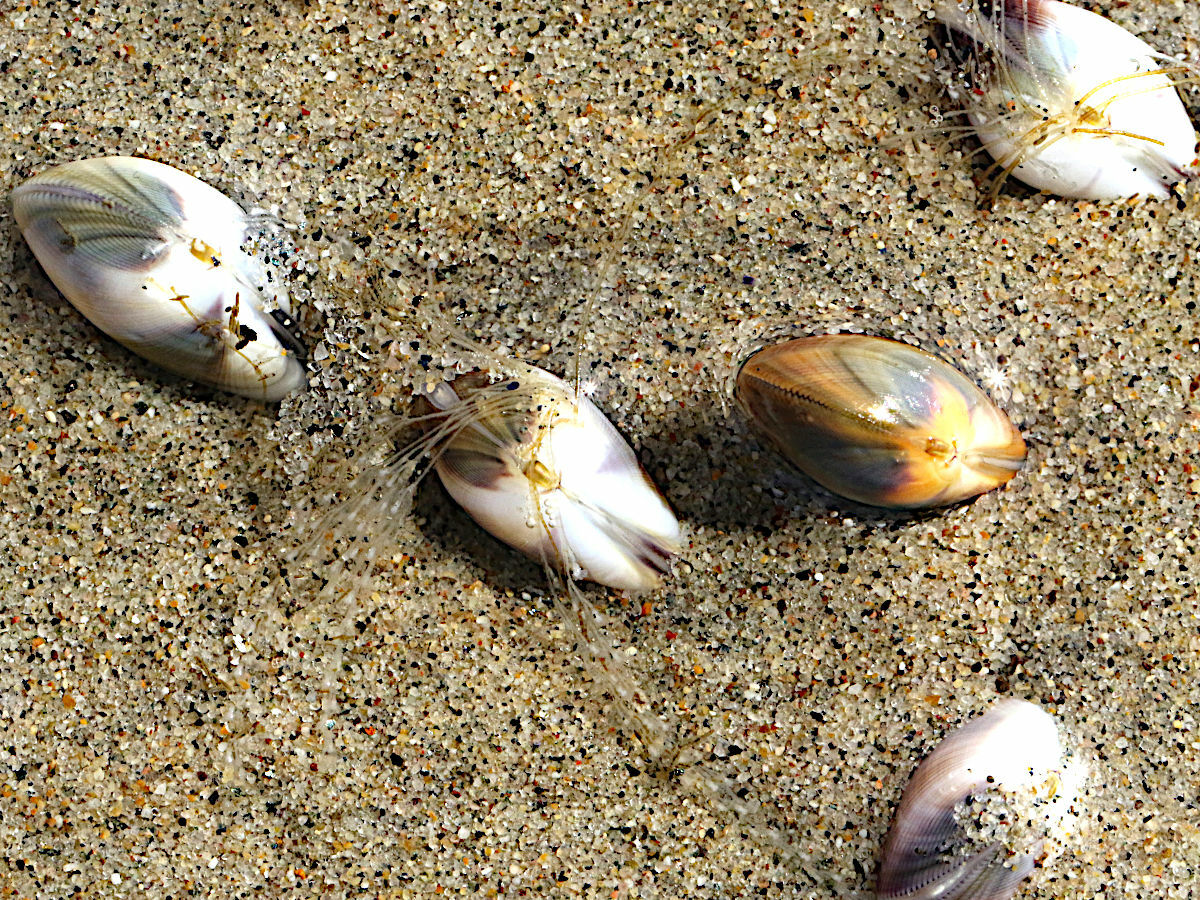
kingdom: Animalia
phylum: Mollusca
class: Bivalvia
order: Cardiida
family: Donacidae
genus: Donax
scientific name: Donax gouldii
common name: Gould beanclam
